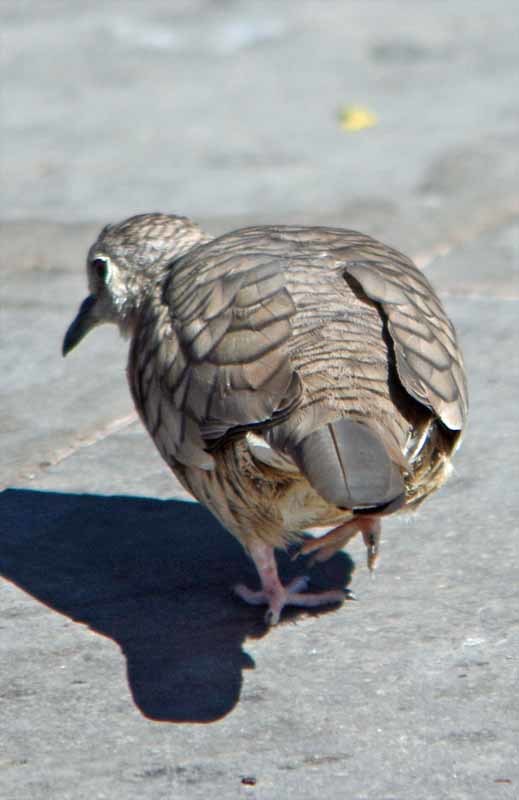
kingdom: Animalia
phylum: Chordata
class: Aves
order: Columbiformes
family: Columbidae
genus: Columbina
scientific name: Columbina inca
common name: Inca dove
